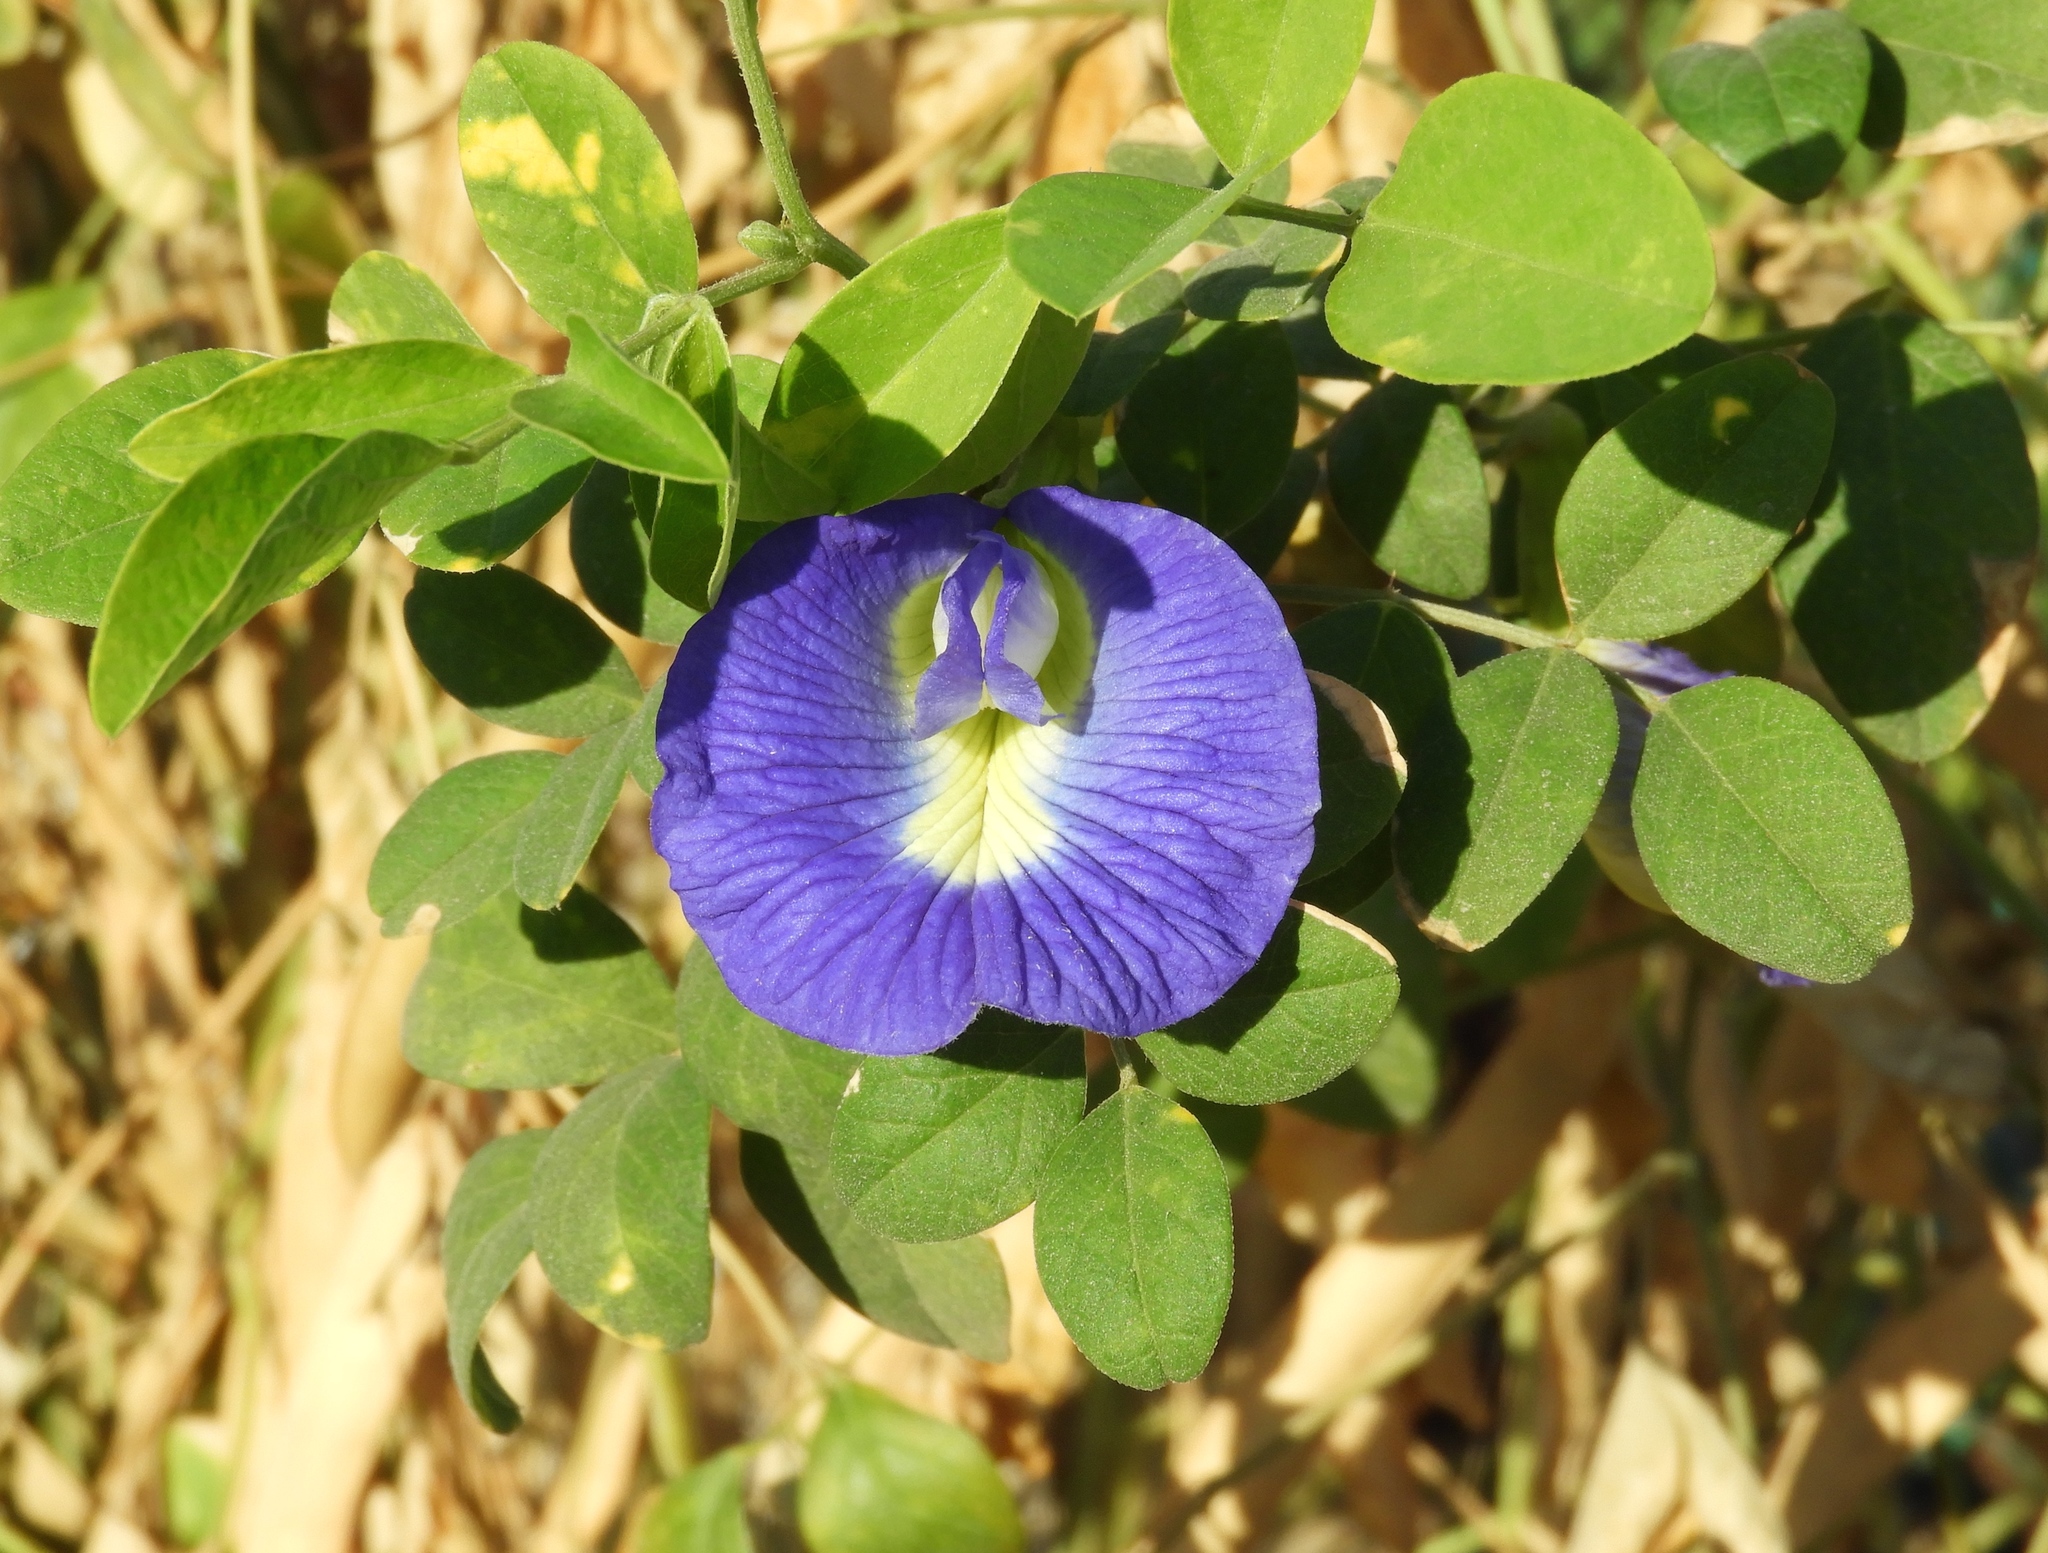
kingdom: Plantae
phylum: Tracheophyta
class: Magnoliopsida
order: Fabales
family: Fabaceae
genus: Clitoria
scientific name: Clitoria ternatea
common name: Asian pigeonwings
